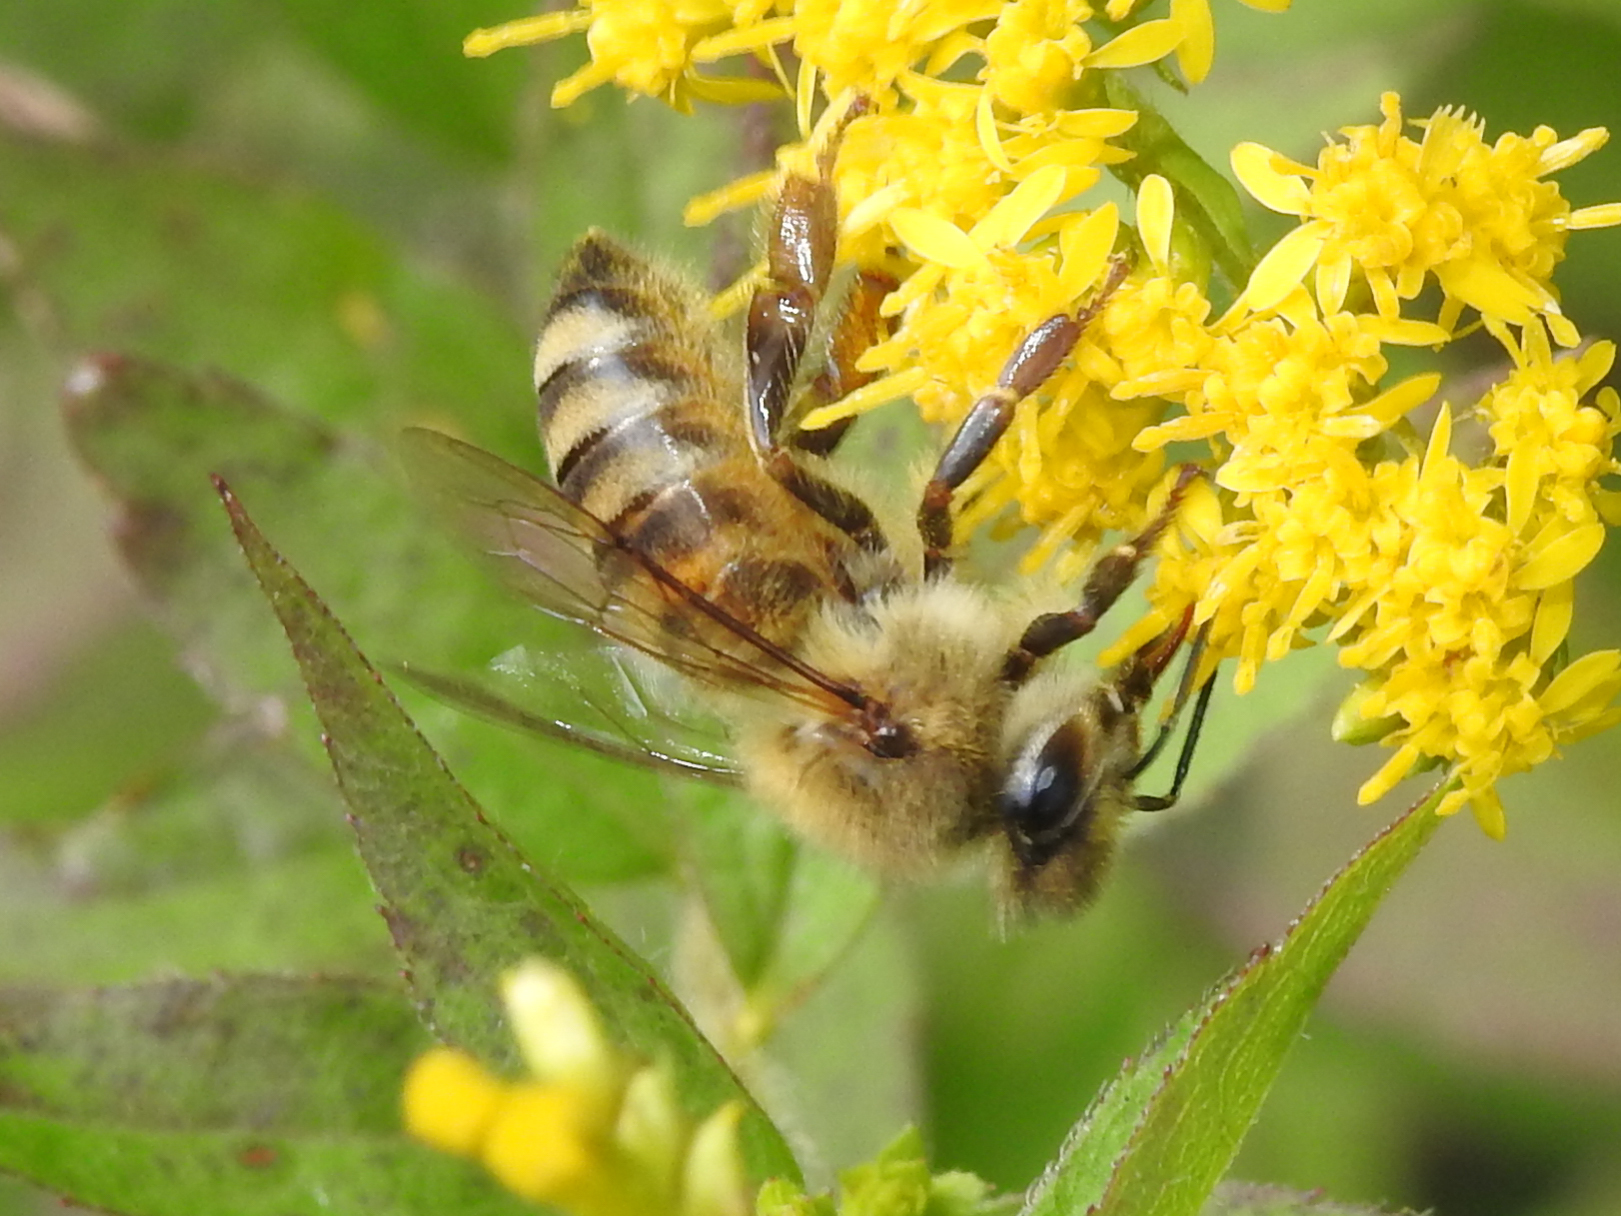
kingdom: Animalia
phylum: Arthropoda
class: Insecta
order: Hymenoptera
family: Apidae
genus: Apis
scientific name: Apis mellifera
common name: Honey bee
